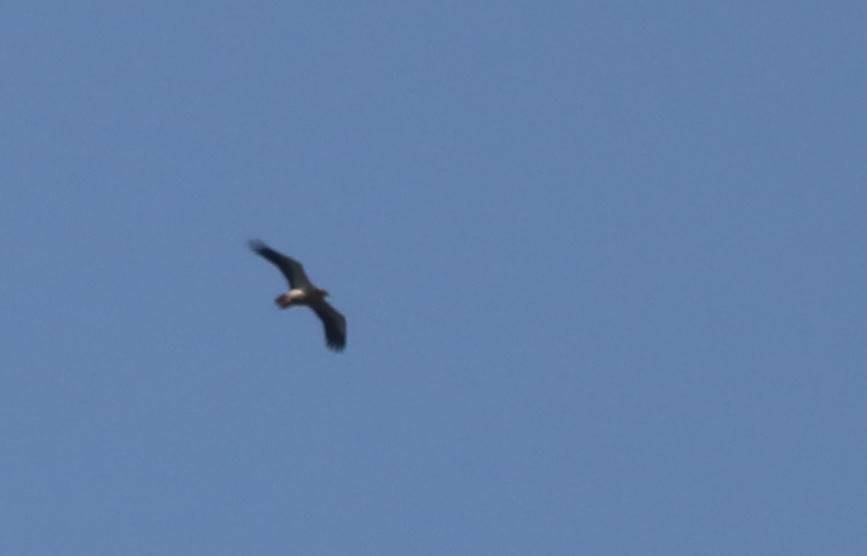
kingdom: Animalia
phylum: Chordata
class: Aves
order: Accipitriformes
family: Accipitridae
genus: Neophron
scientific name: Neophron percnopterus
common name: Egyptian vulture
